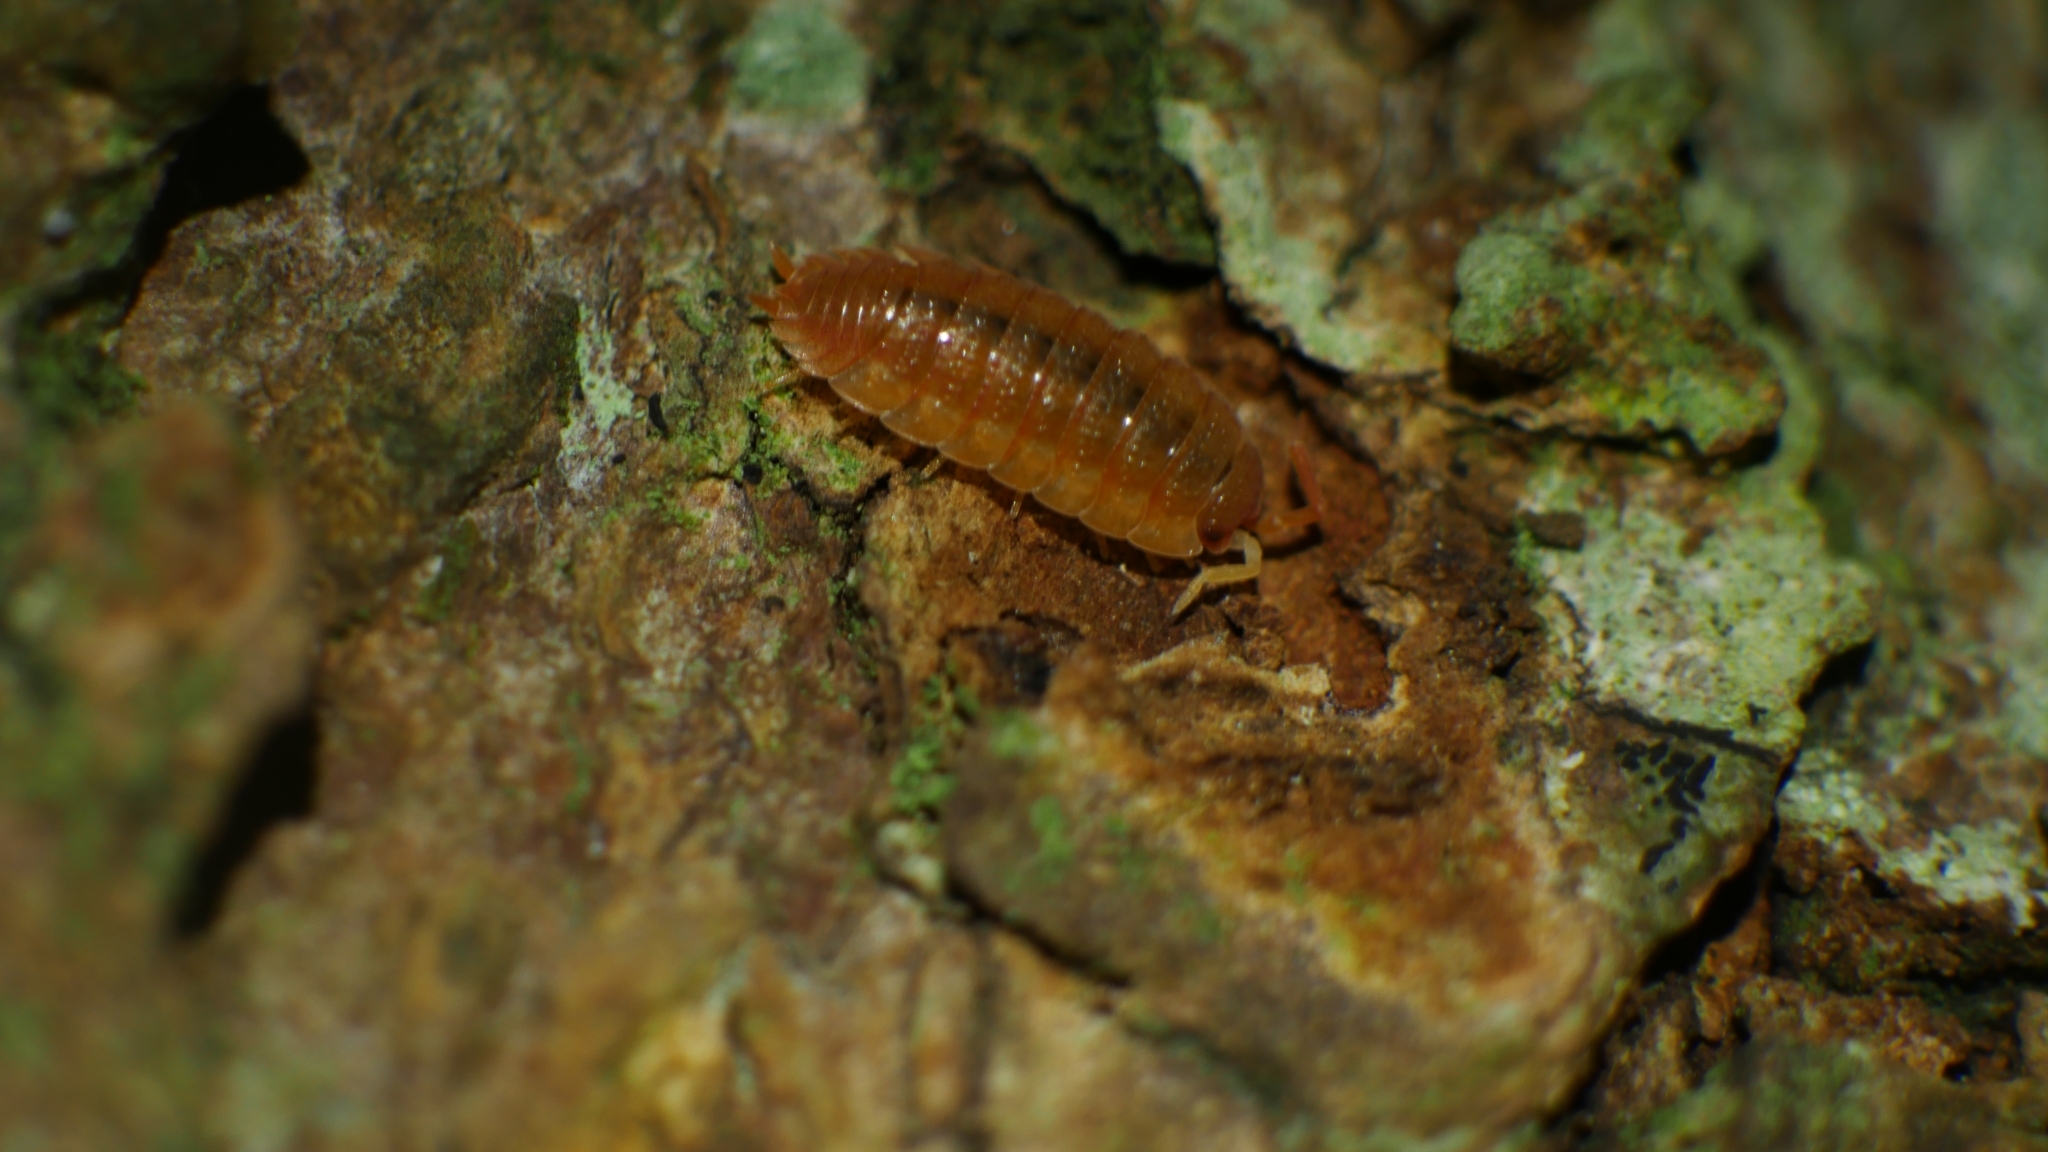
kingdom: Animalia
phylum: Arthropoda
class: Malacostraca
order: Isopoda
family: Porcellionidae
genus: Porcellio
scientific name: Porcellio scaber
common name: Common rough woodlouse
